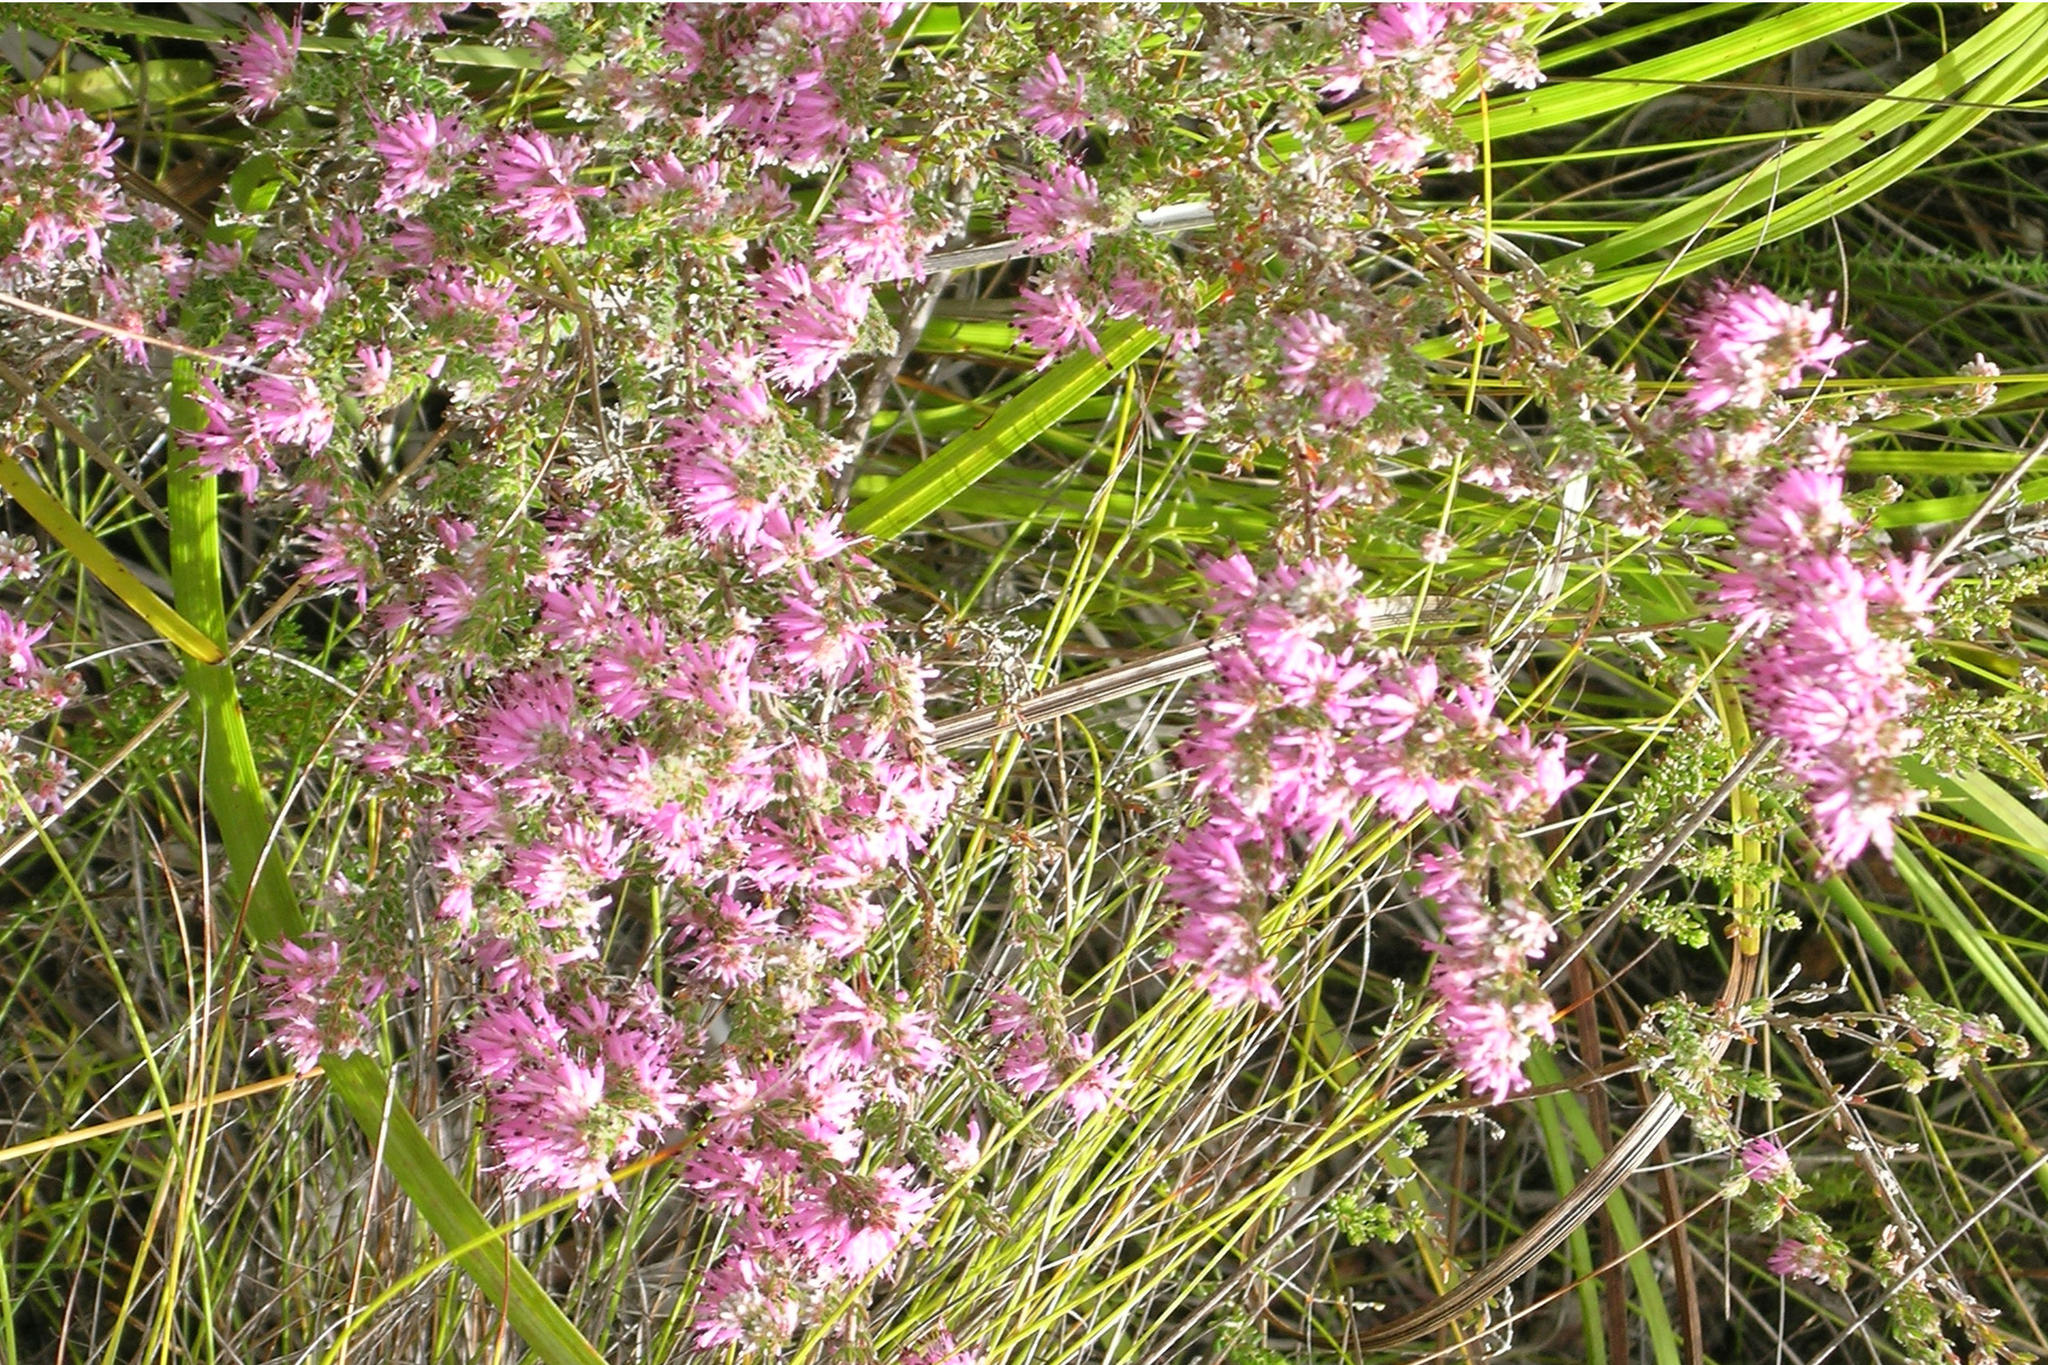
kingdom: Plantae
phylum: Tracheophyta
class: Magnoliopsida
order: Ericales
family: Ericaceae
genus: Erica
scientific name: Erica similis
